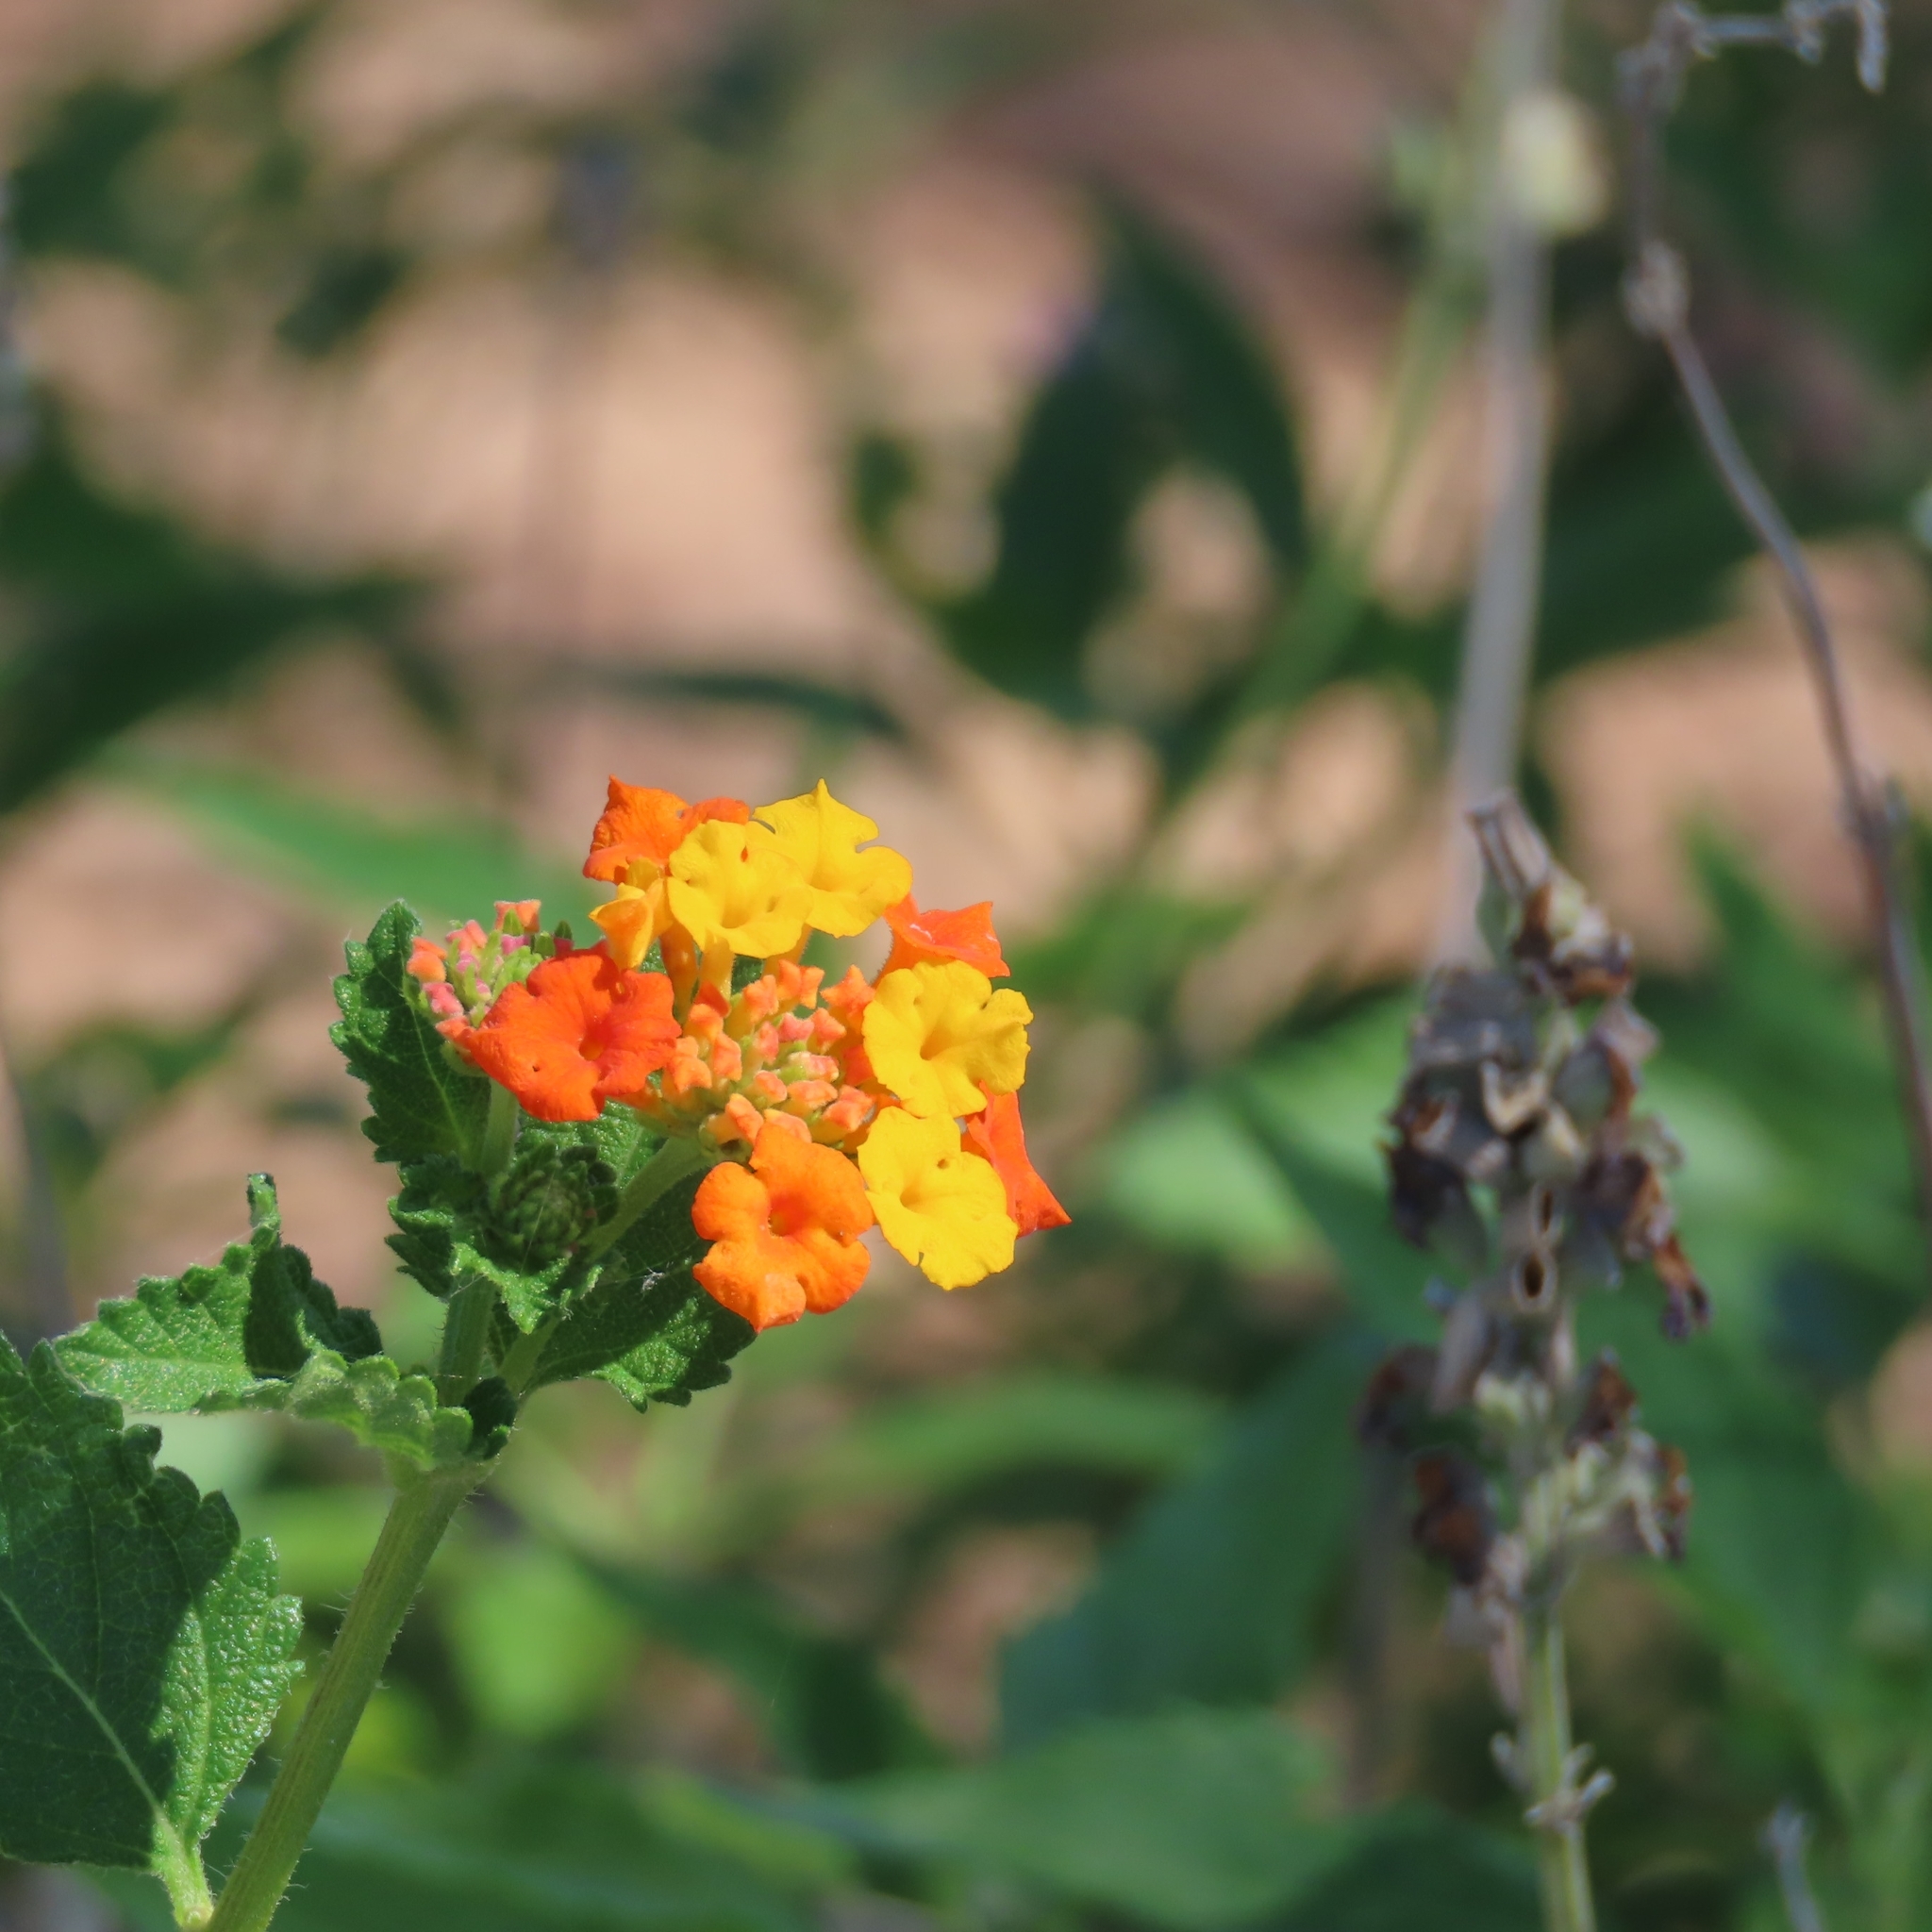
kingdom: Plantae
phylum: Tracheophyta
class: Magnoliopsida
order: Lamiales
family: Verbenaceae
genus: Lantana
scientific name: Lantana urticoides
